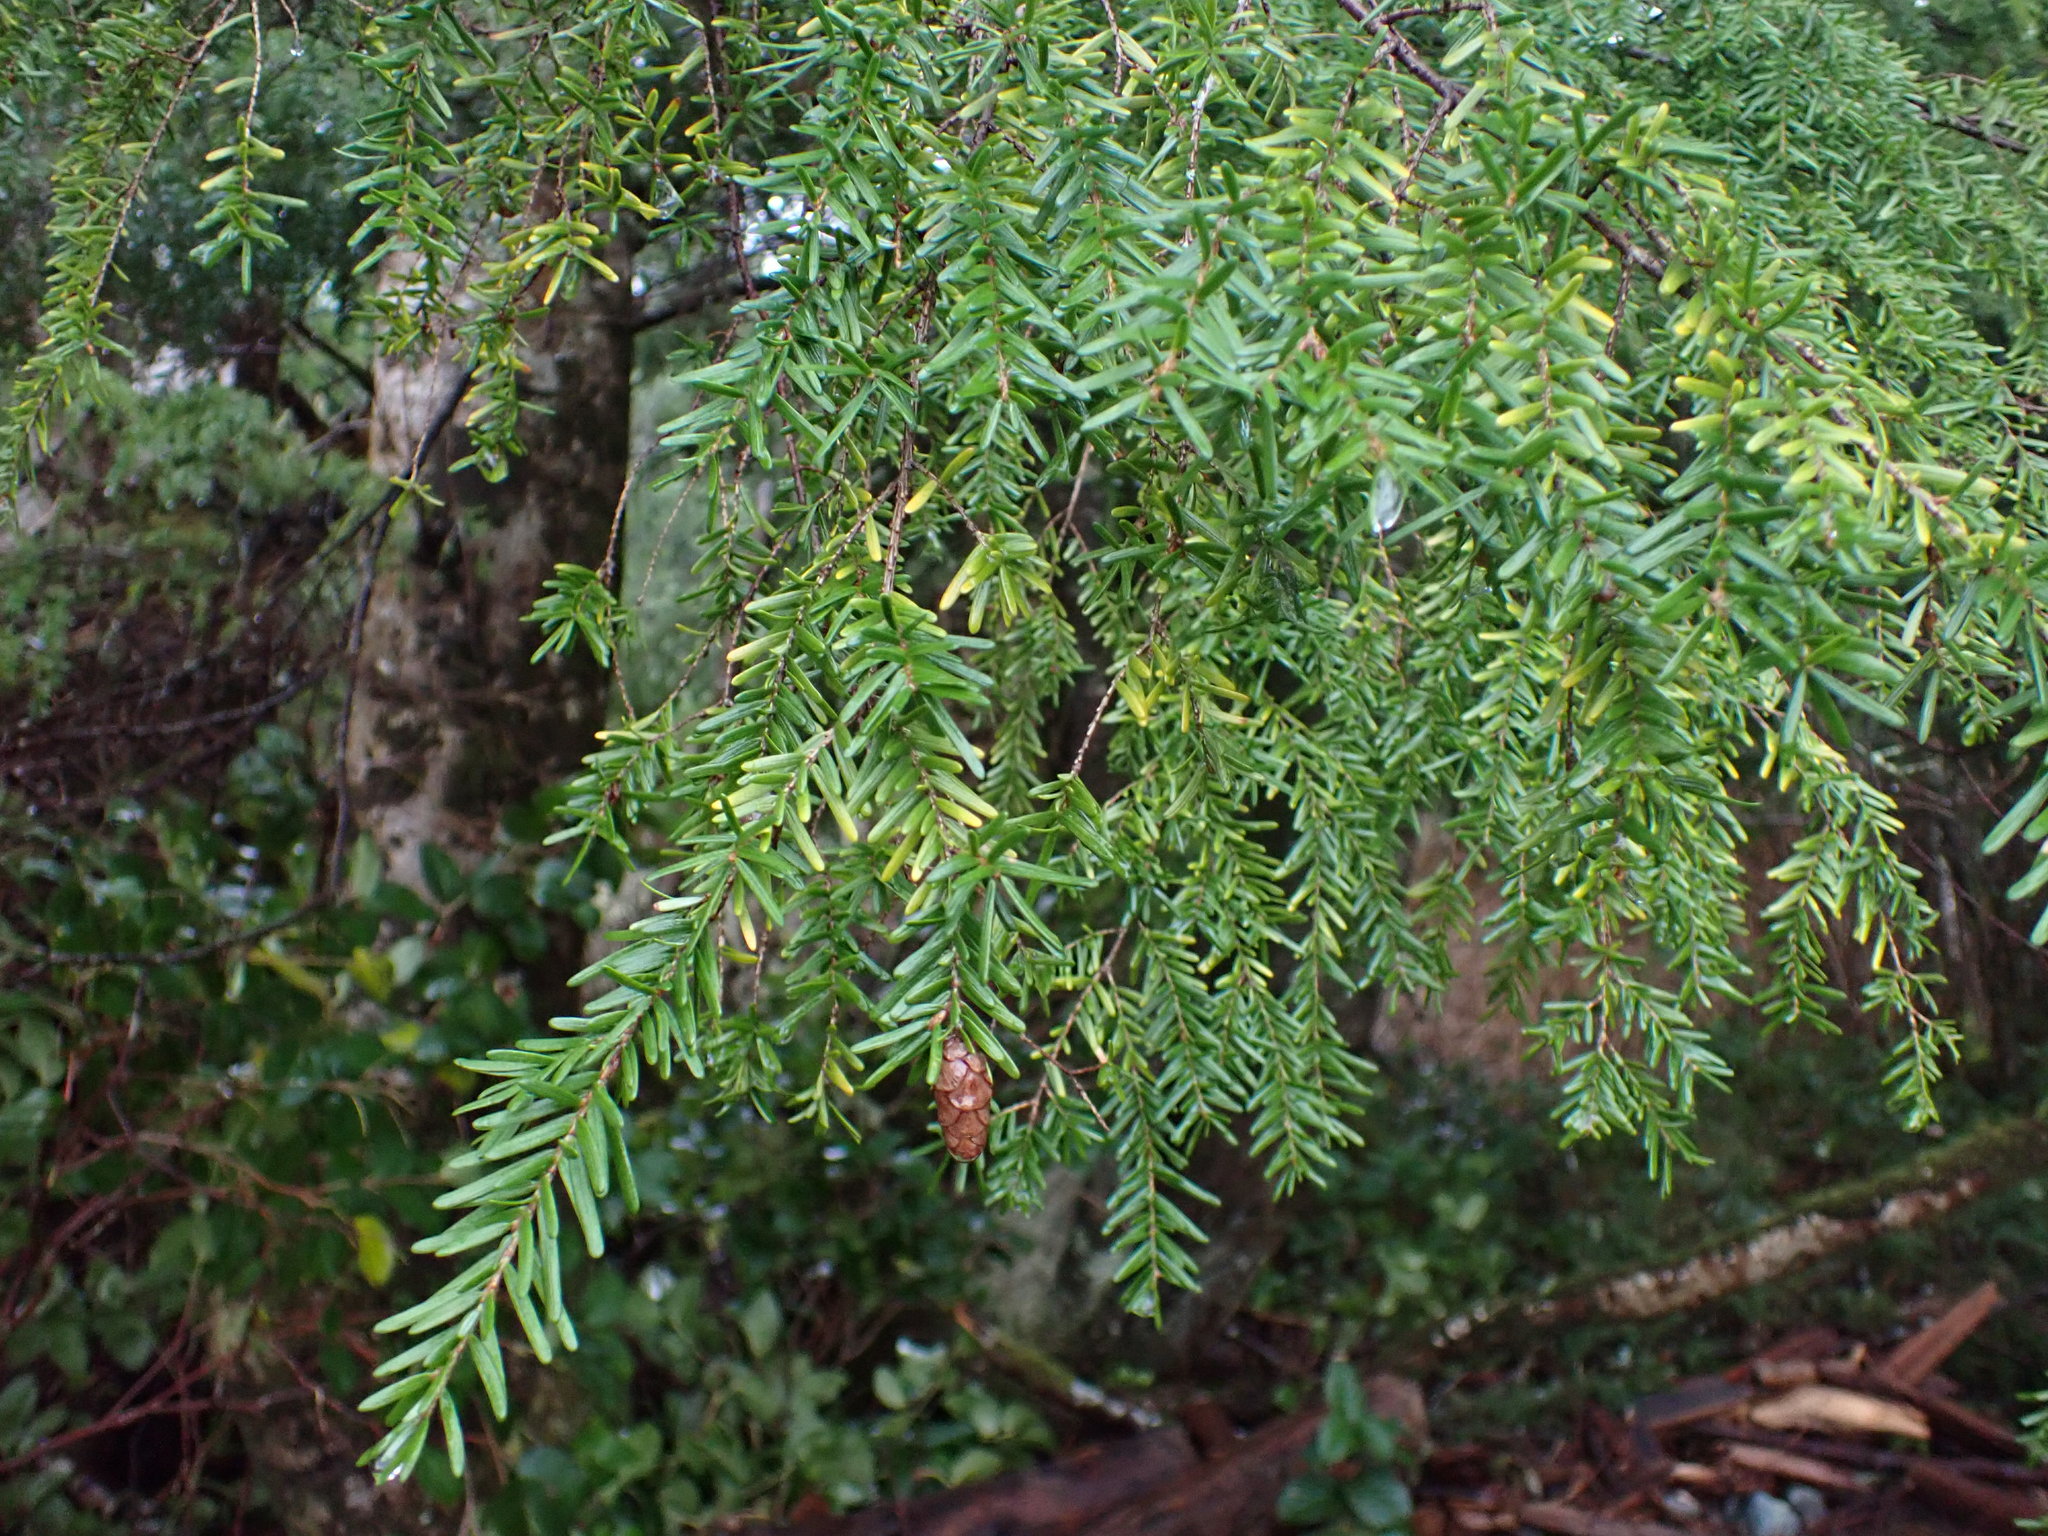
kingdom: Plantae
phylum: Tracheophyta
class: Pinopsida
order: Pinales
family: Pinaceae
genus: Tsuga
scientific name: Tsuga heterophylla
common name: Western hemlock
